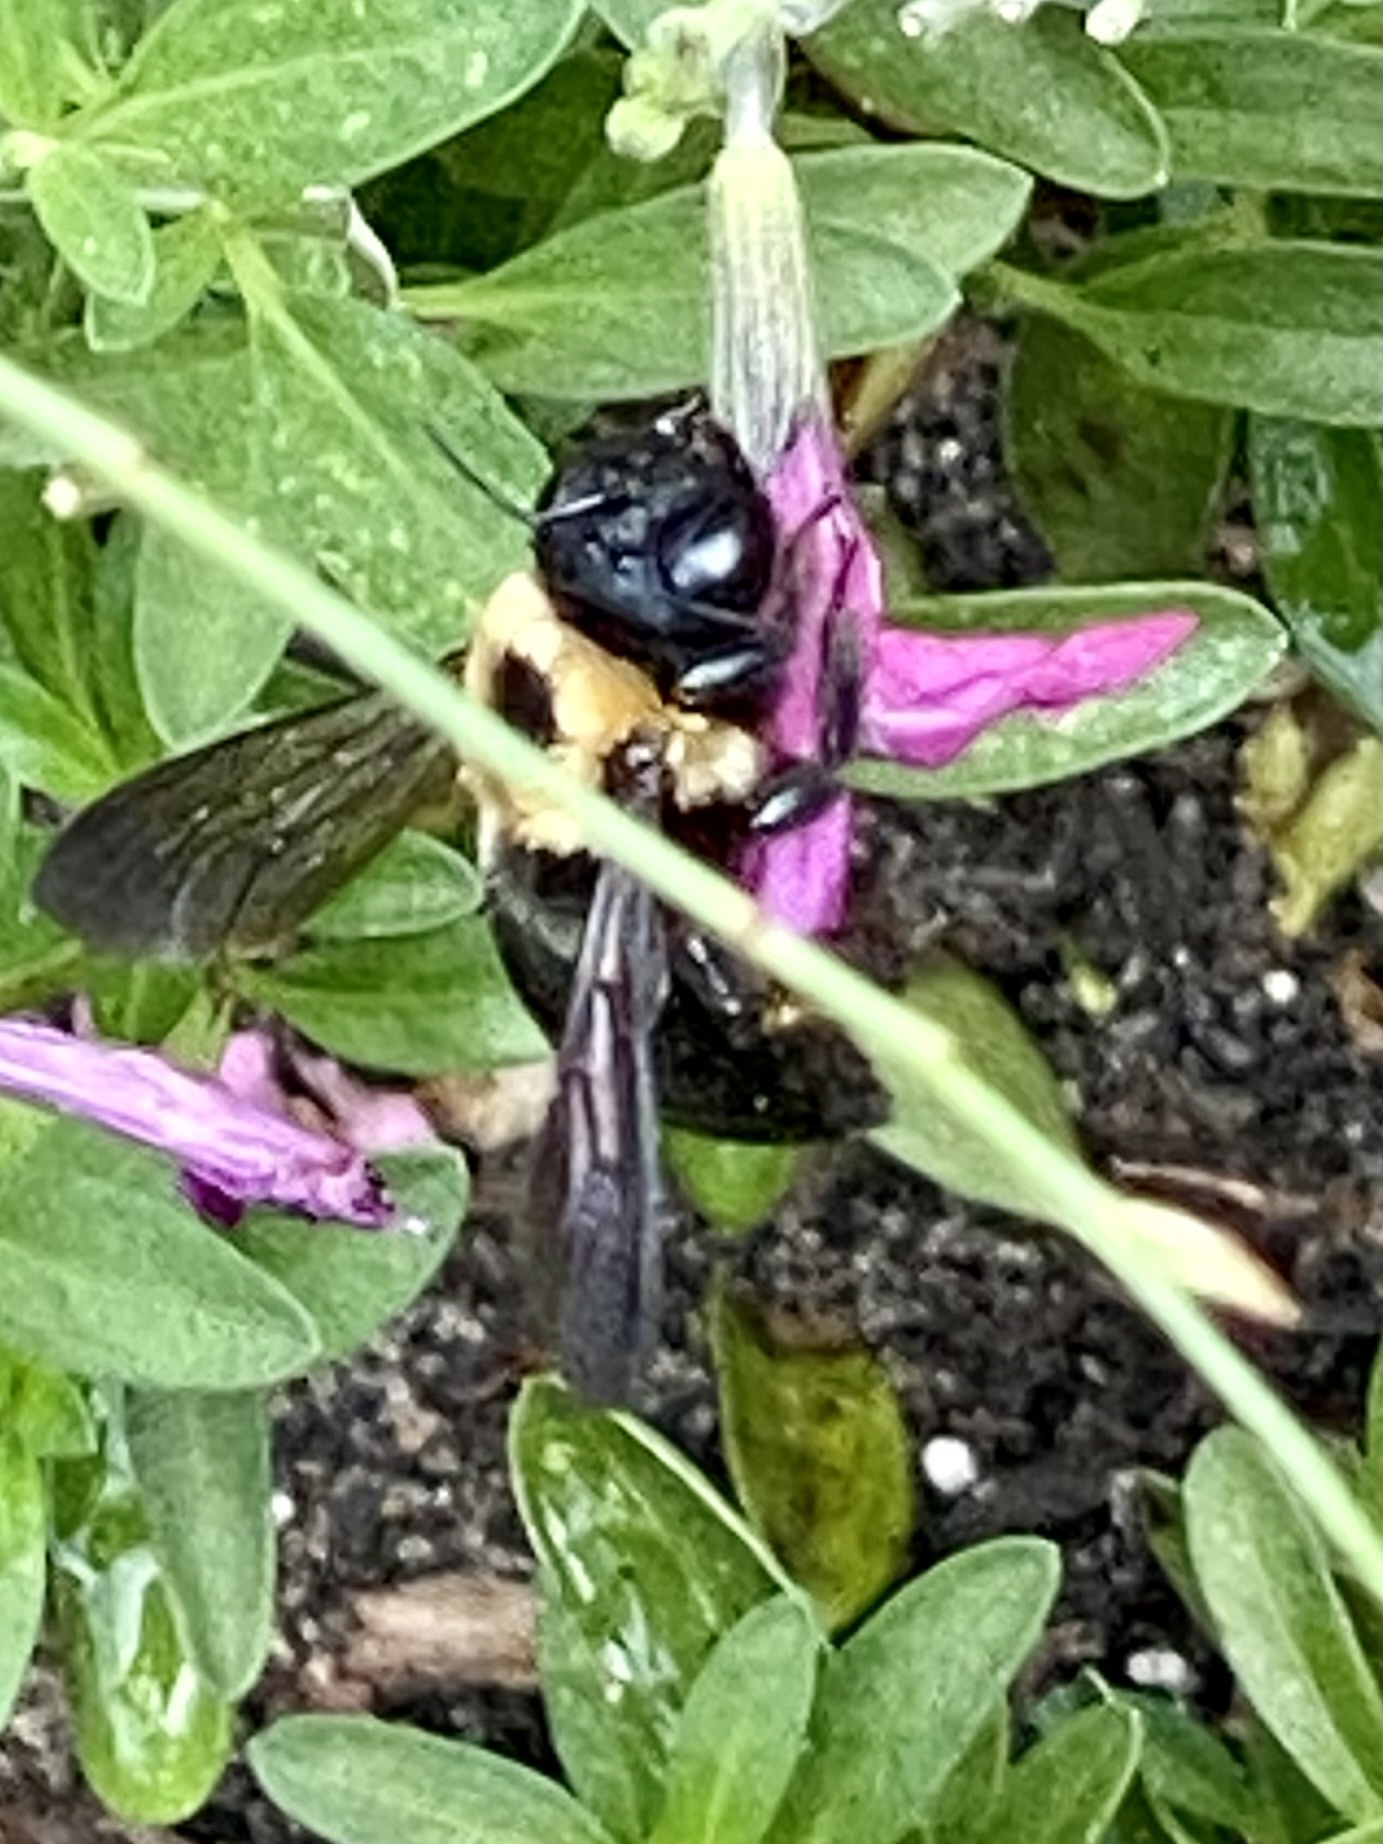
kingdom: Animalia
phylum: Arthropoda
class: Insecta
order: Hymenoptera
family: Apidae
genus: Xylocopa
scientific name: Xylocopa virginica
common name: Carpenter bee
